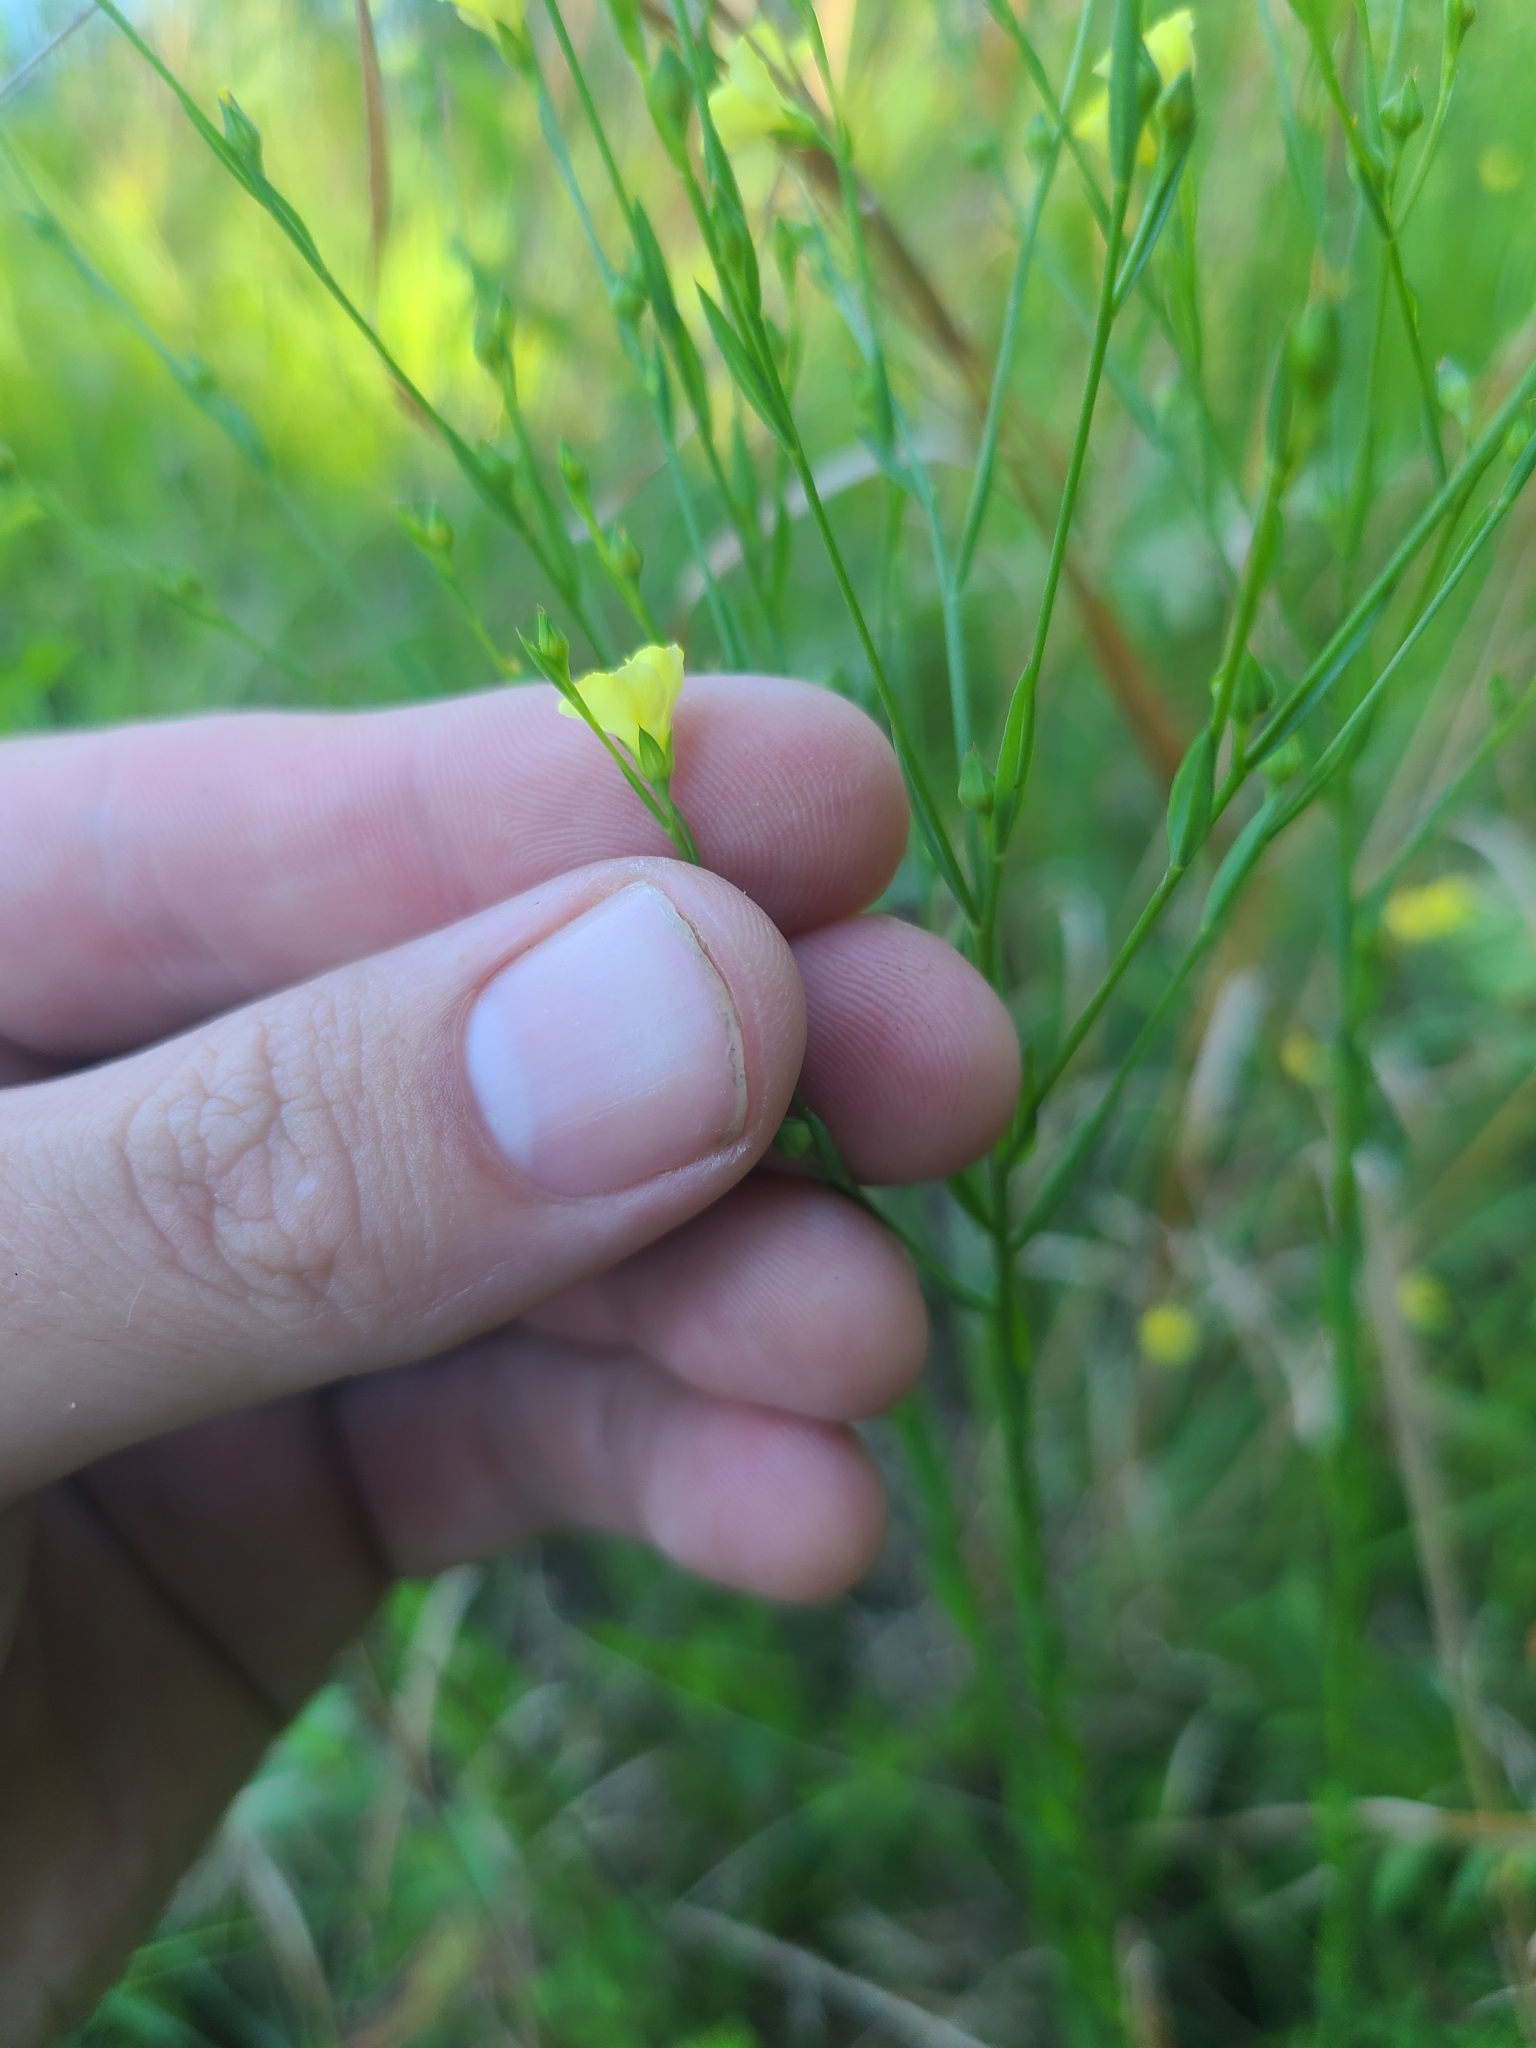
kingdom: Plantae
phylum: Tracheophyta
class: Magnoliopsida
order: Malpighiales
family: Linaceae
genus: Linum
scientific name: Linum medium
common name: Stiff yellow flax
